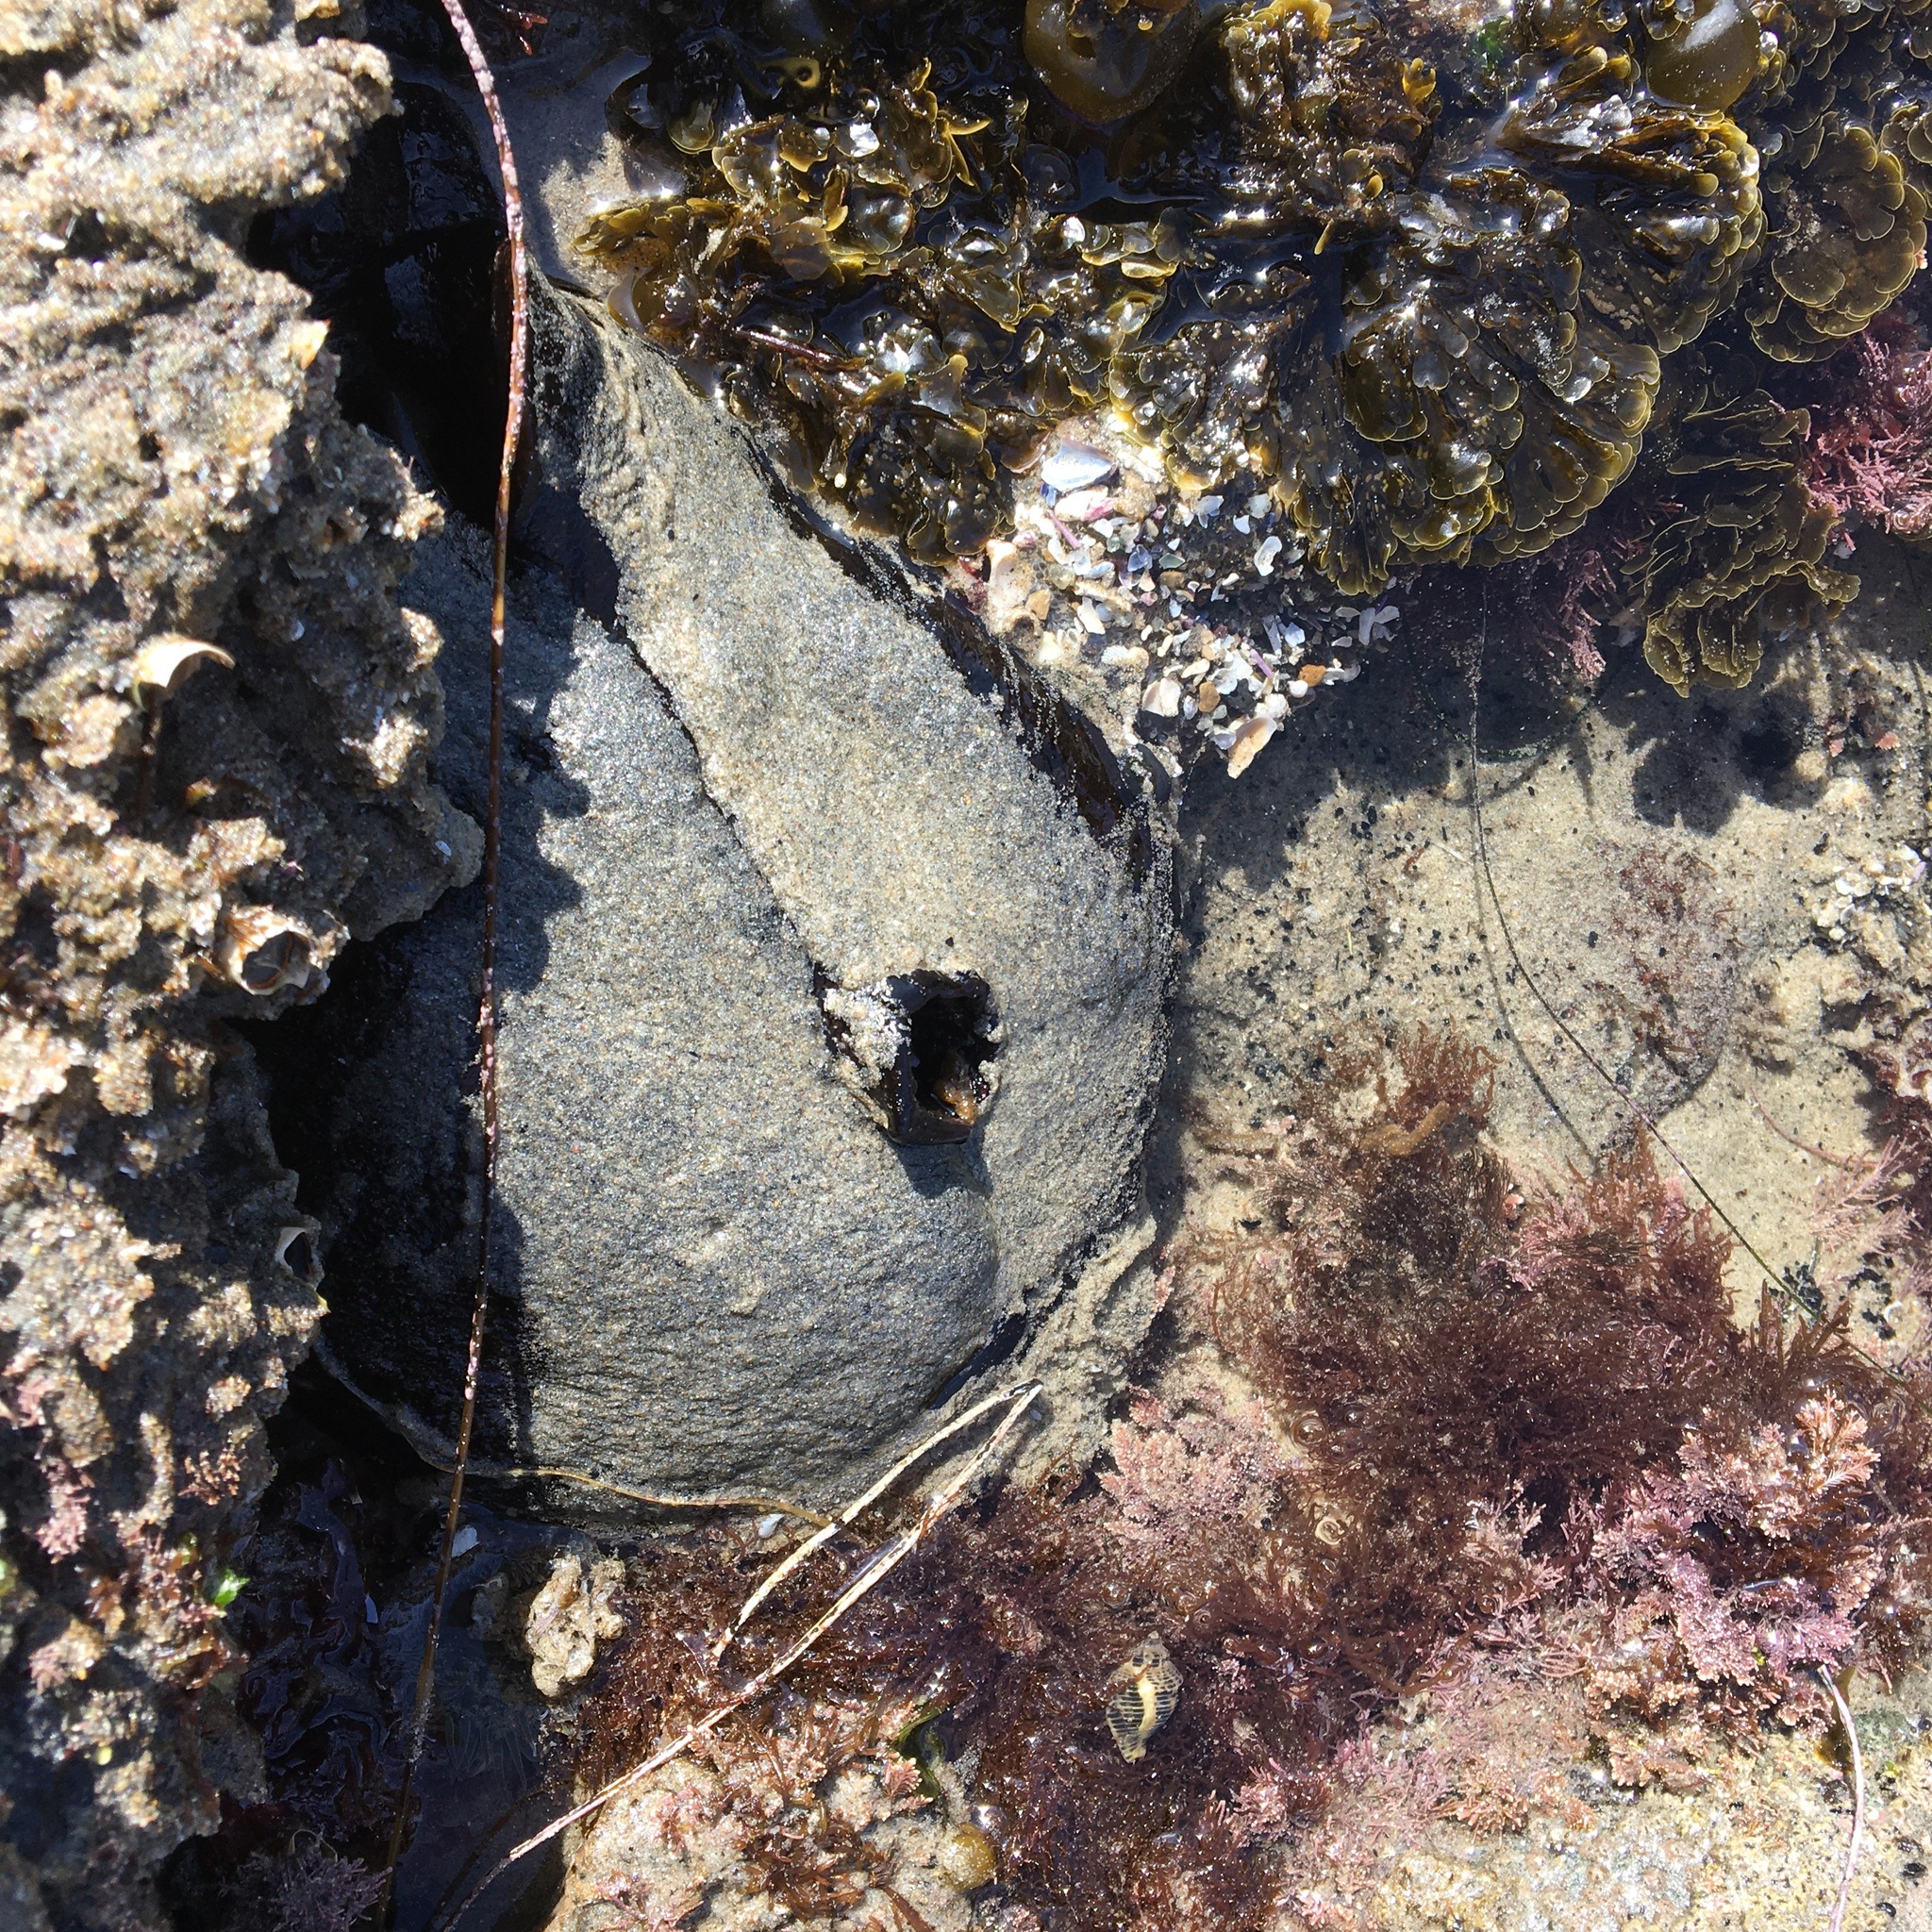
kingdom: Animalia
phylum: Mollusca
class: Gastropoda
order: Aplysiida
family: Aplysiidae
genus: Aplysia
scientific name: Aplysia vaccaria
